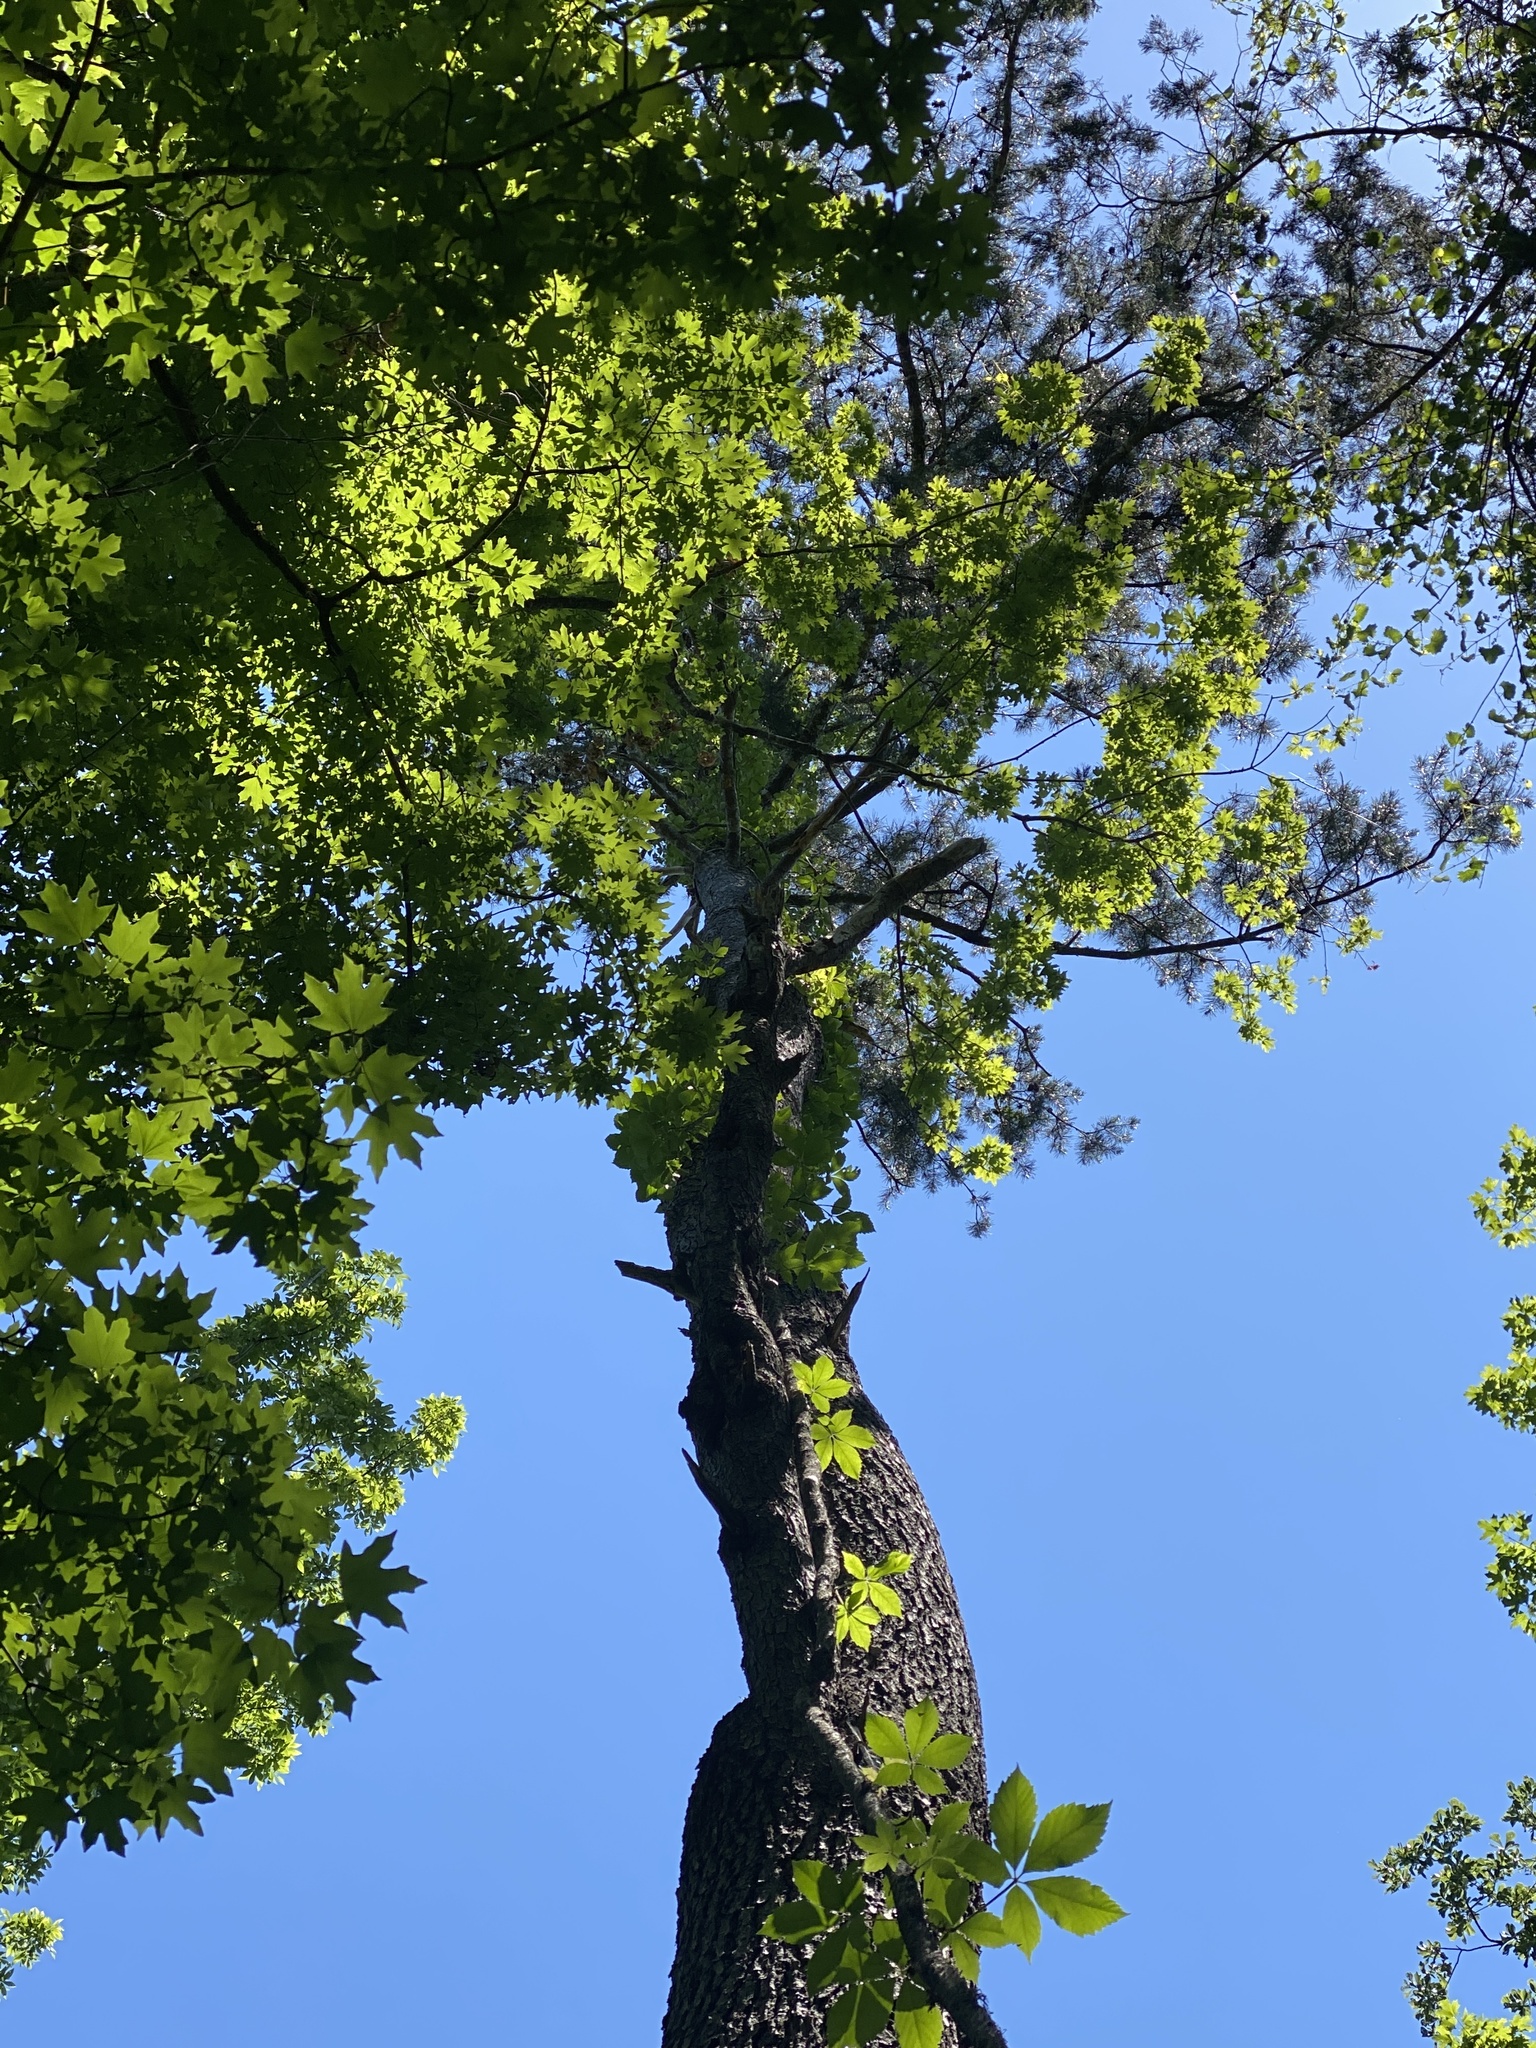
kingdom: Plantae
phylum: Tracheophyta
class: Pinopsida
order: Pinales
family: Pinaceae
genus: Pinus
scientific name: Pinus glabra
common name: Spruce pine
